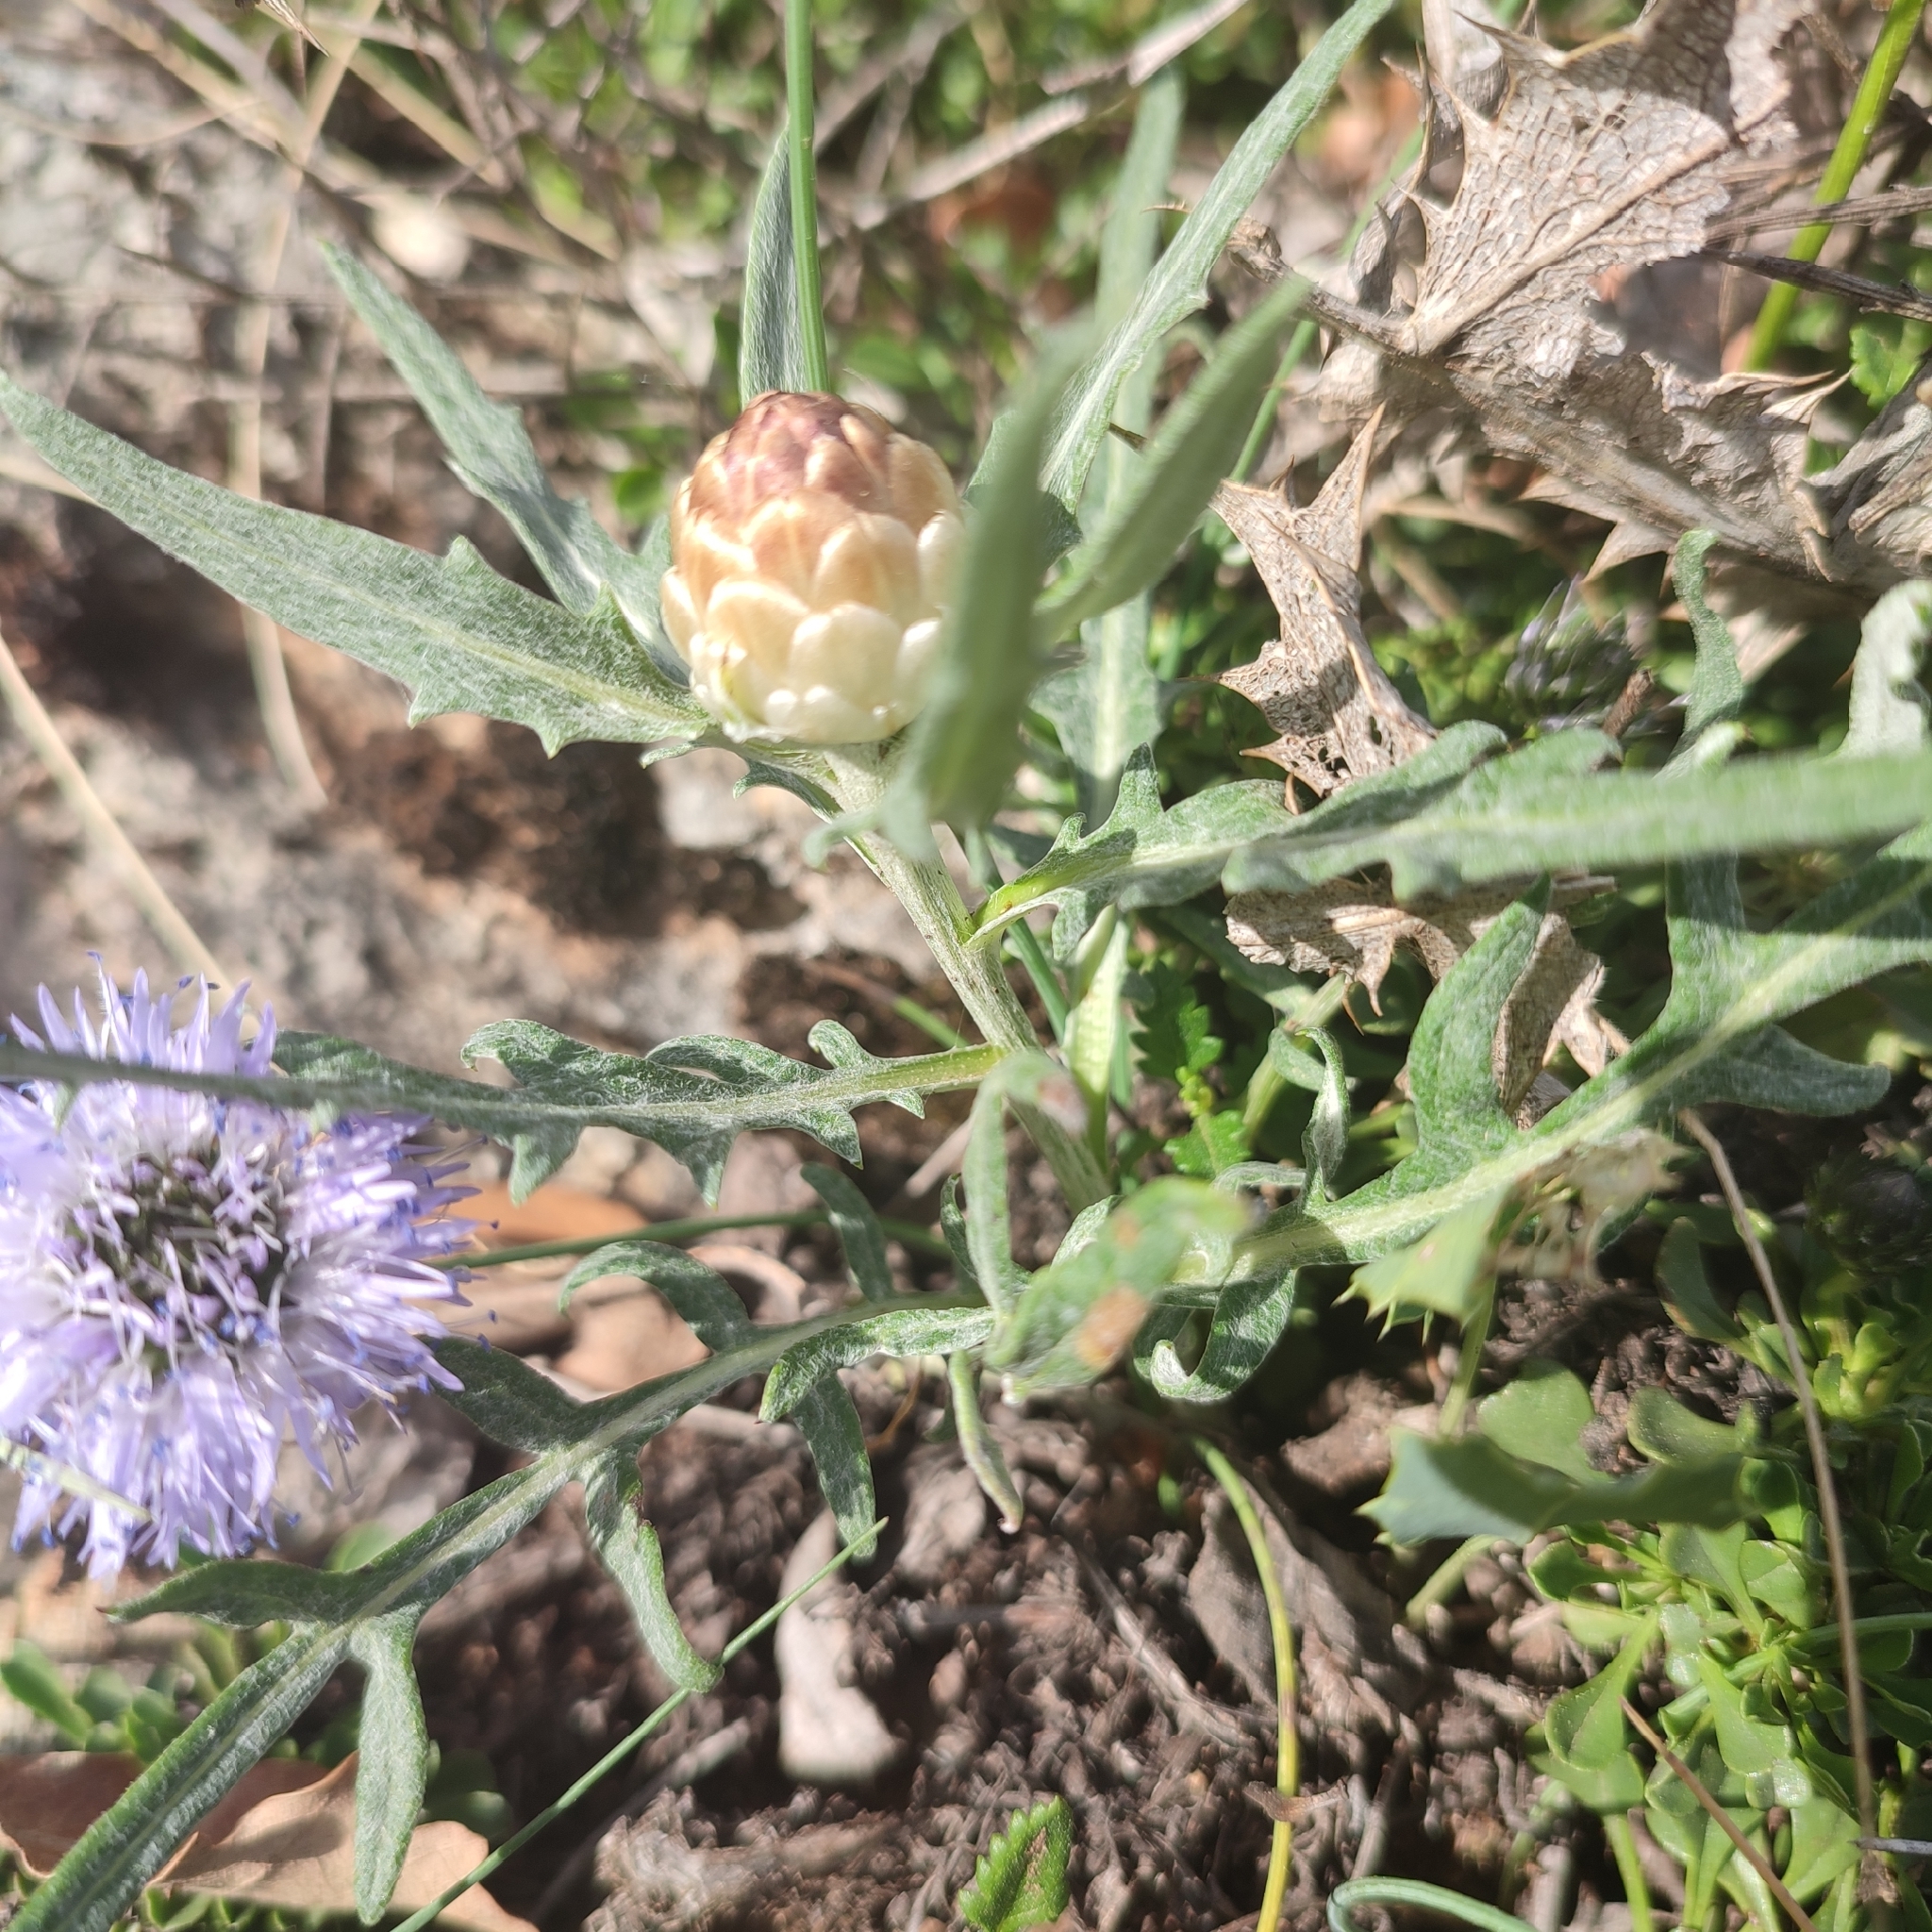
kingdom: Plantae
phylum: Tracheophyta
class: Magnoliopsida
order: Asterales
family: Asteraceae
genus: Leuzea
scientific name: Leuzea conifera
